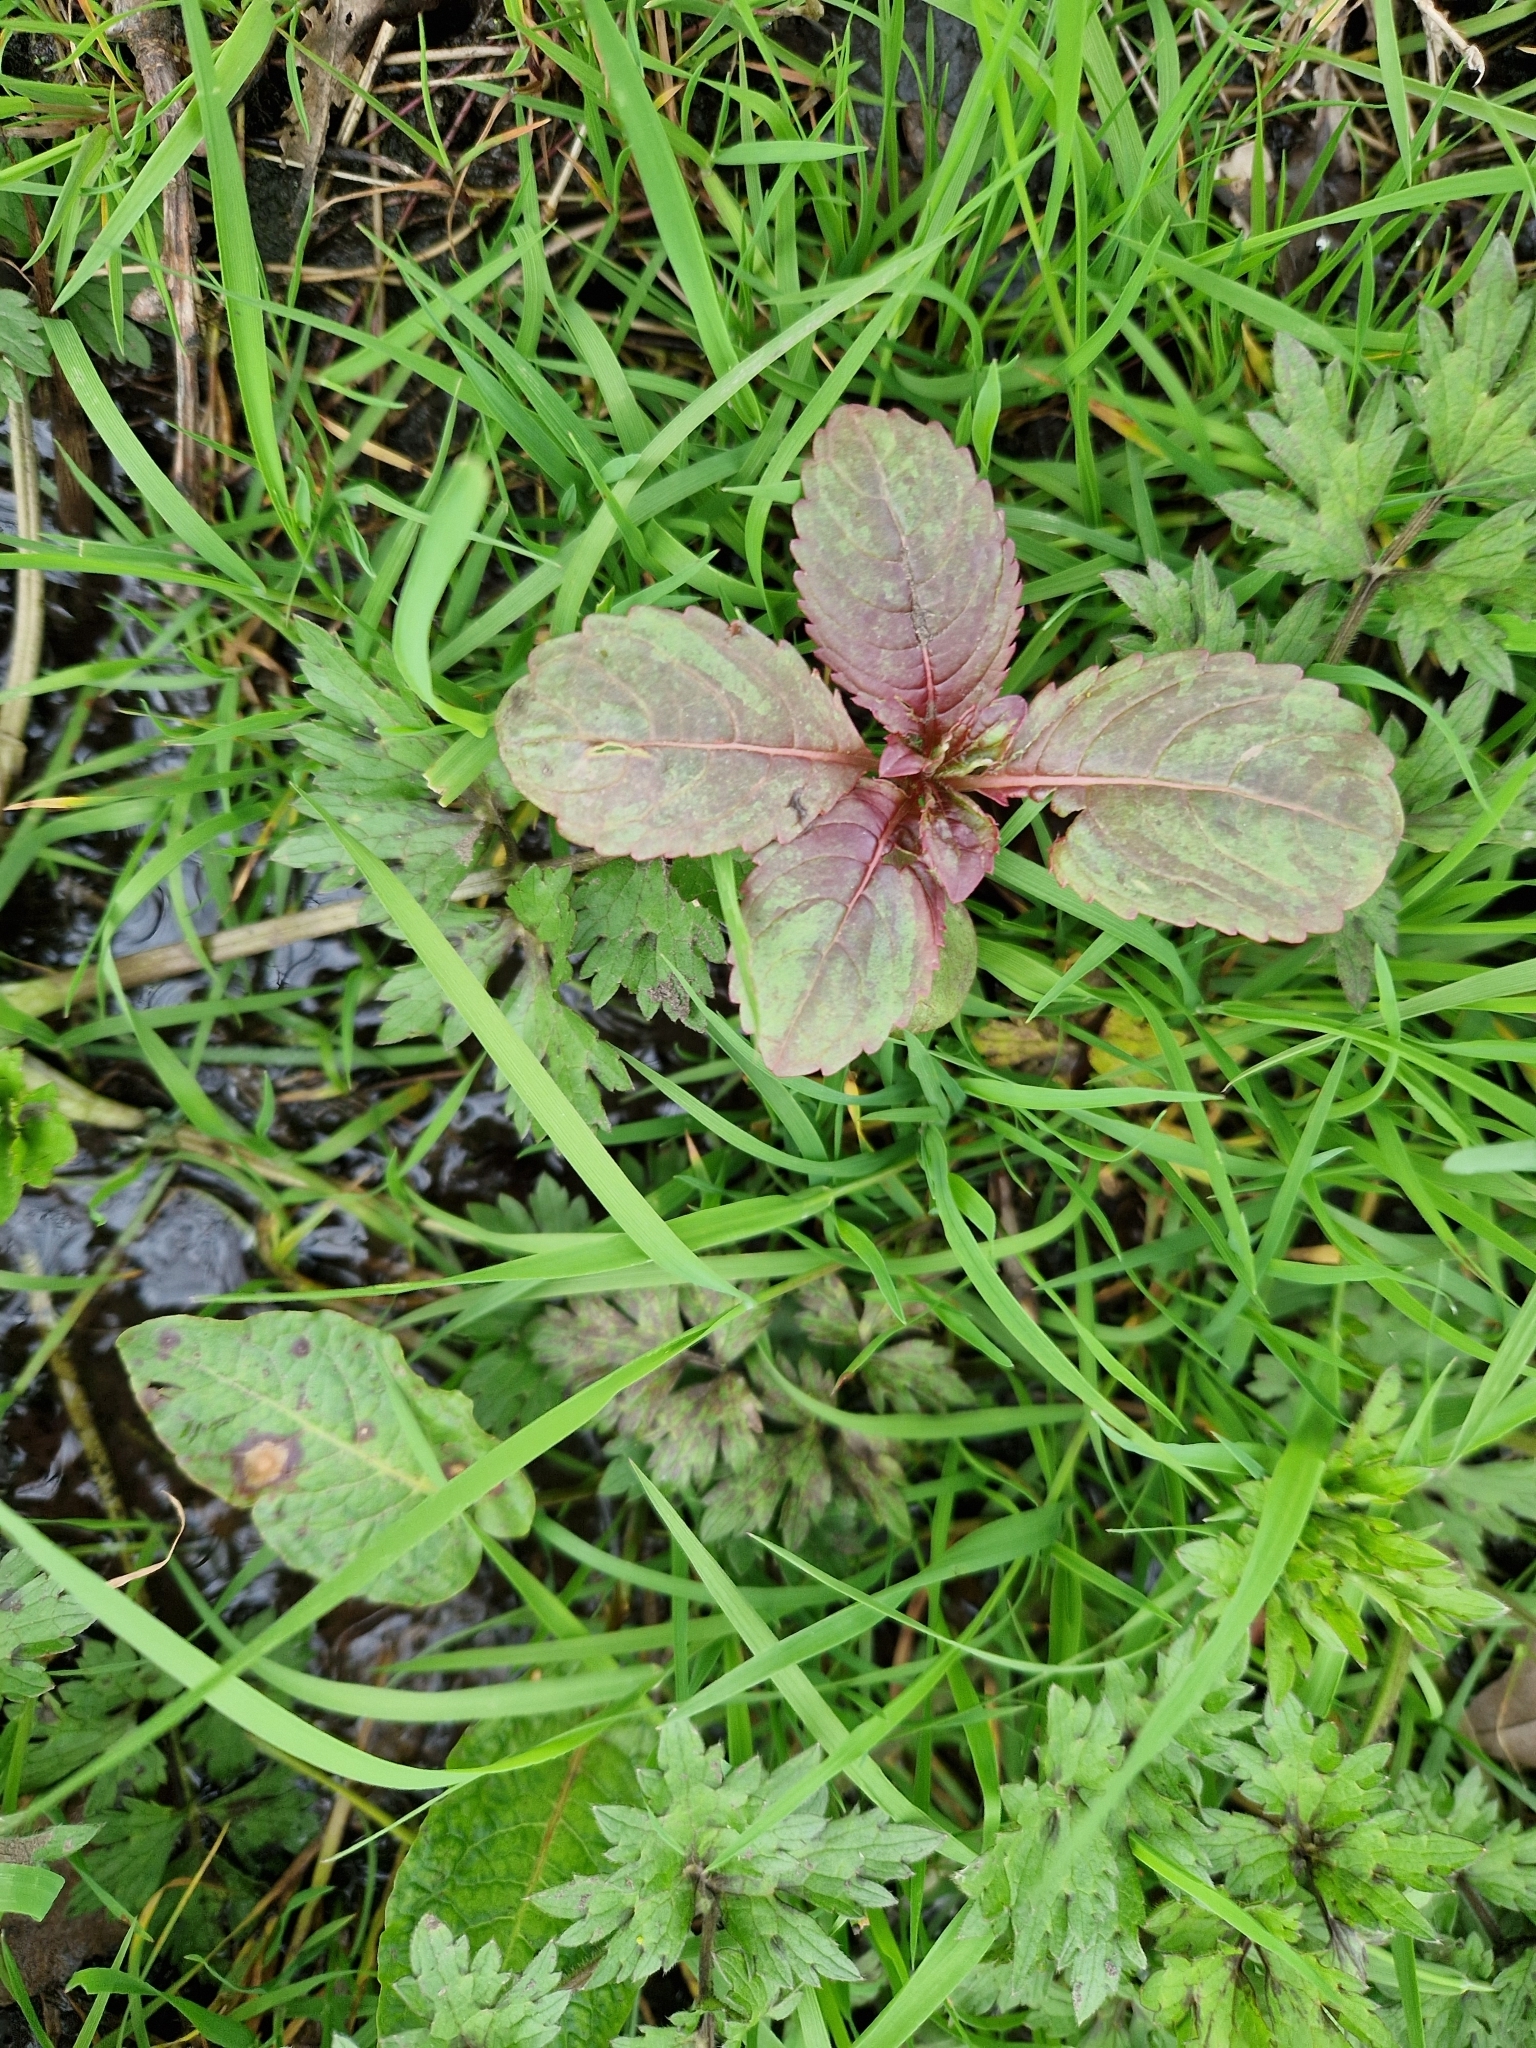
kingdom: Plantae
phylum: Tracheophyta
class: Magnoliopsida
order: Ericales
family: Balsaminaceae
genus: Impatiens
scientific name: Impatiens glandulifera
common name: Himalayan balsam
